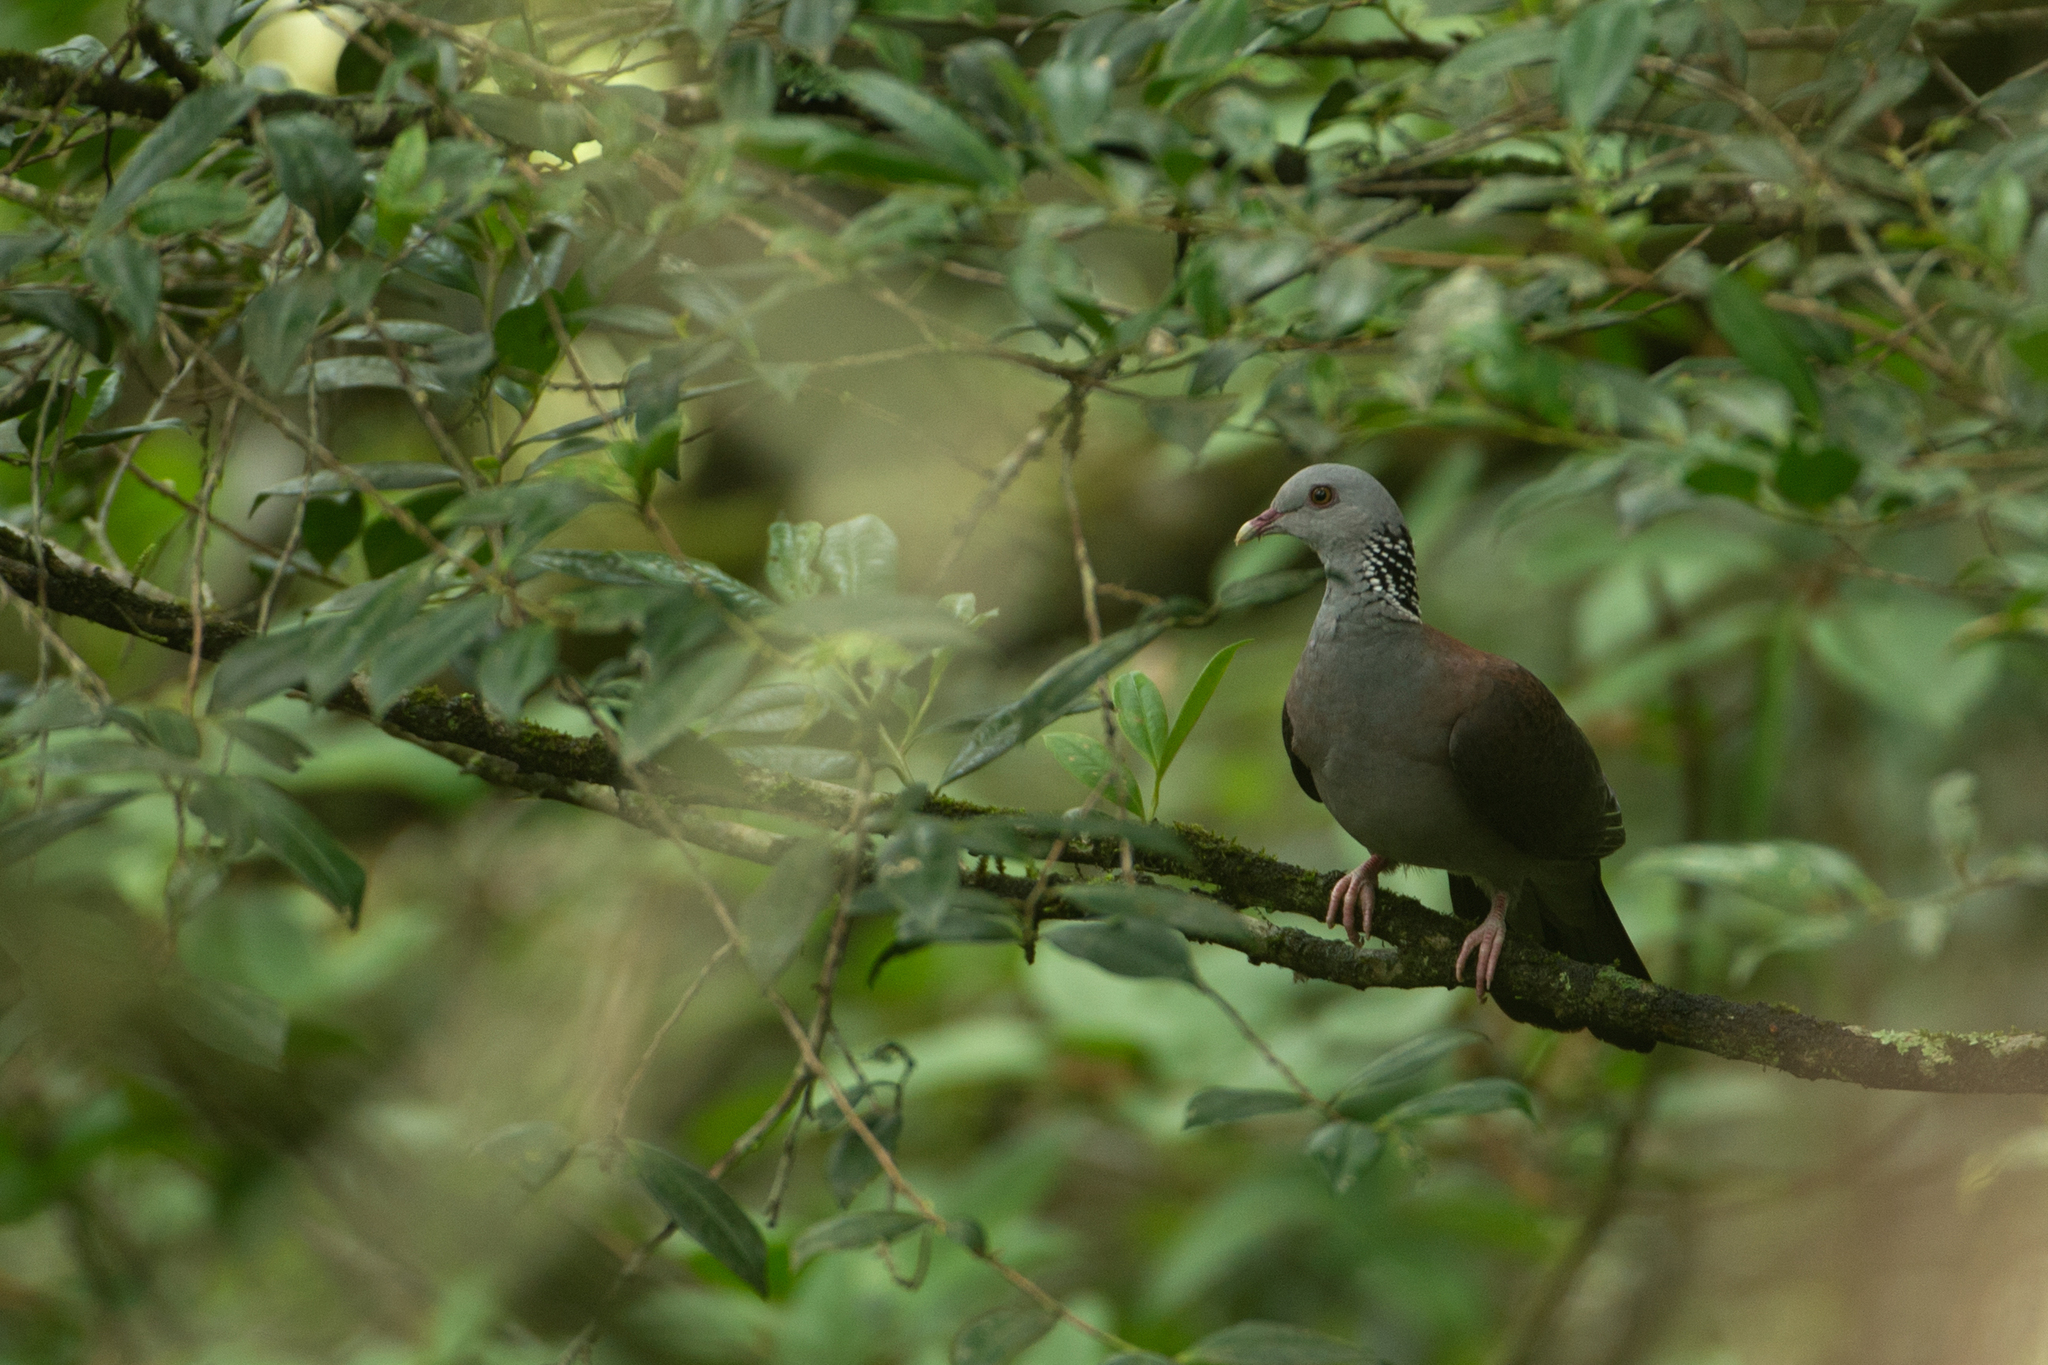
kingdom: Animalia
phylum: Chordata
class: Aves
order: Columbiformes
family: Columbidae
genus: Columba
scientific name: Columba elphinstonii
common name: Nilgiri wood pigeon
